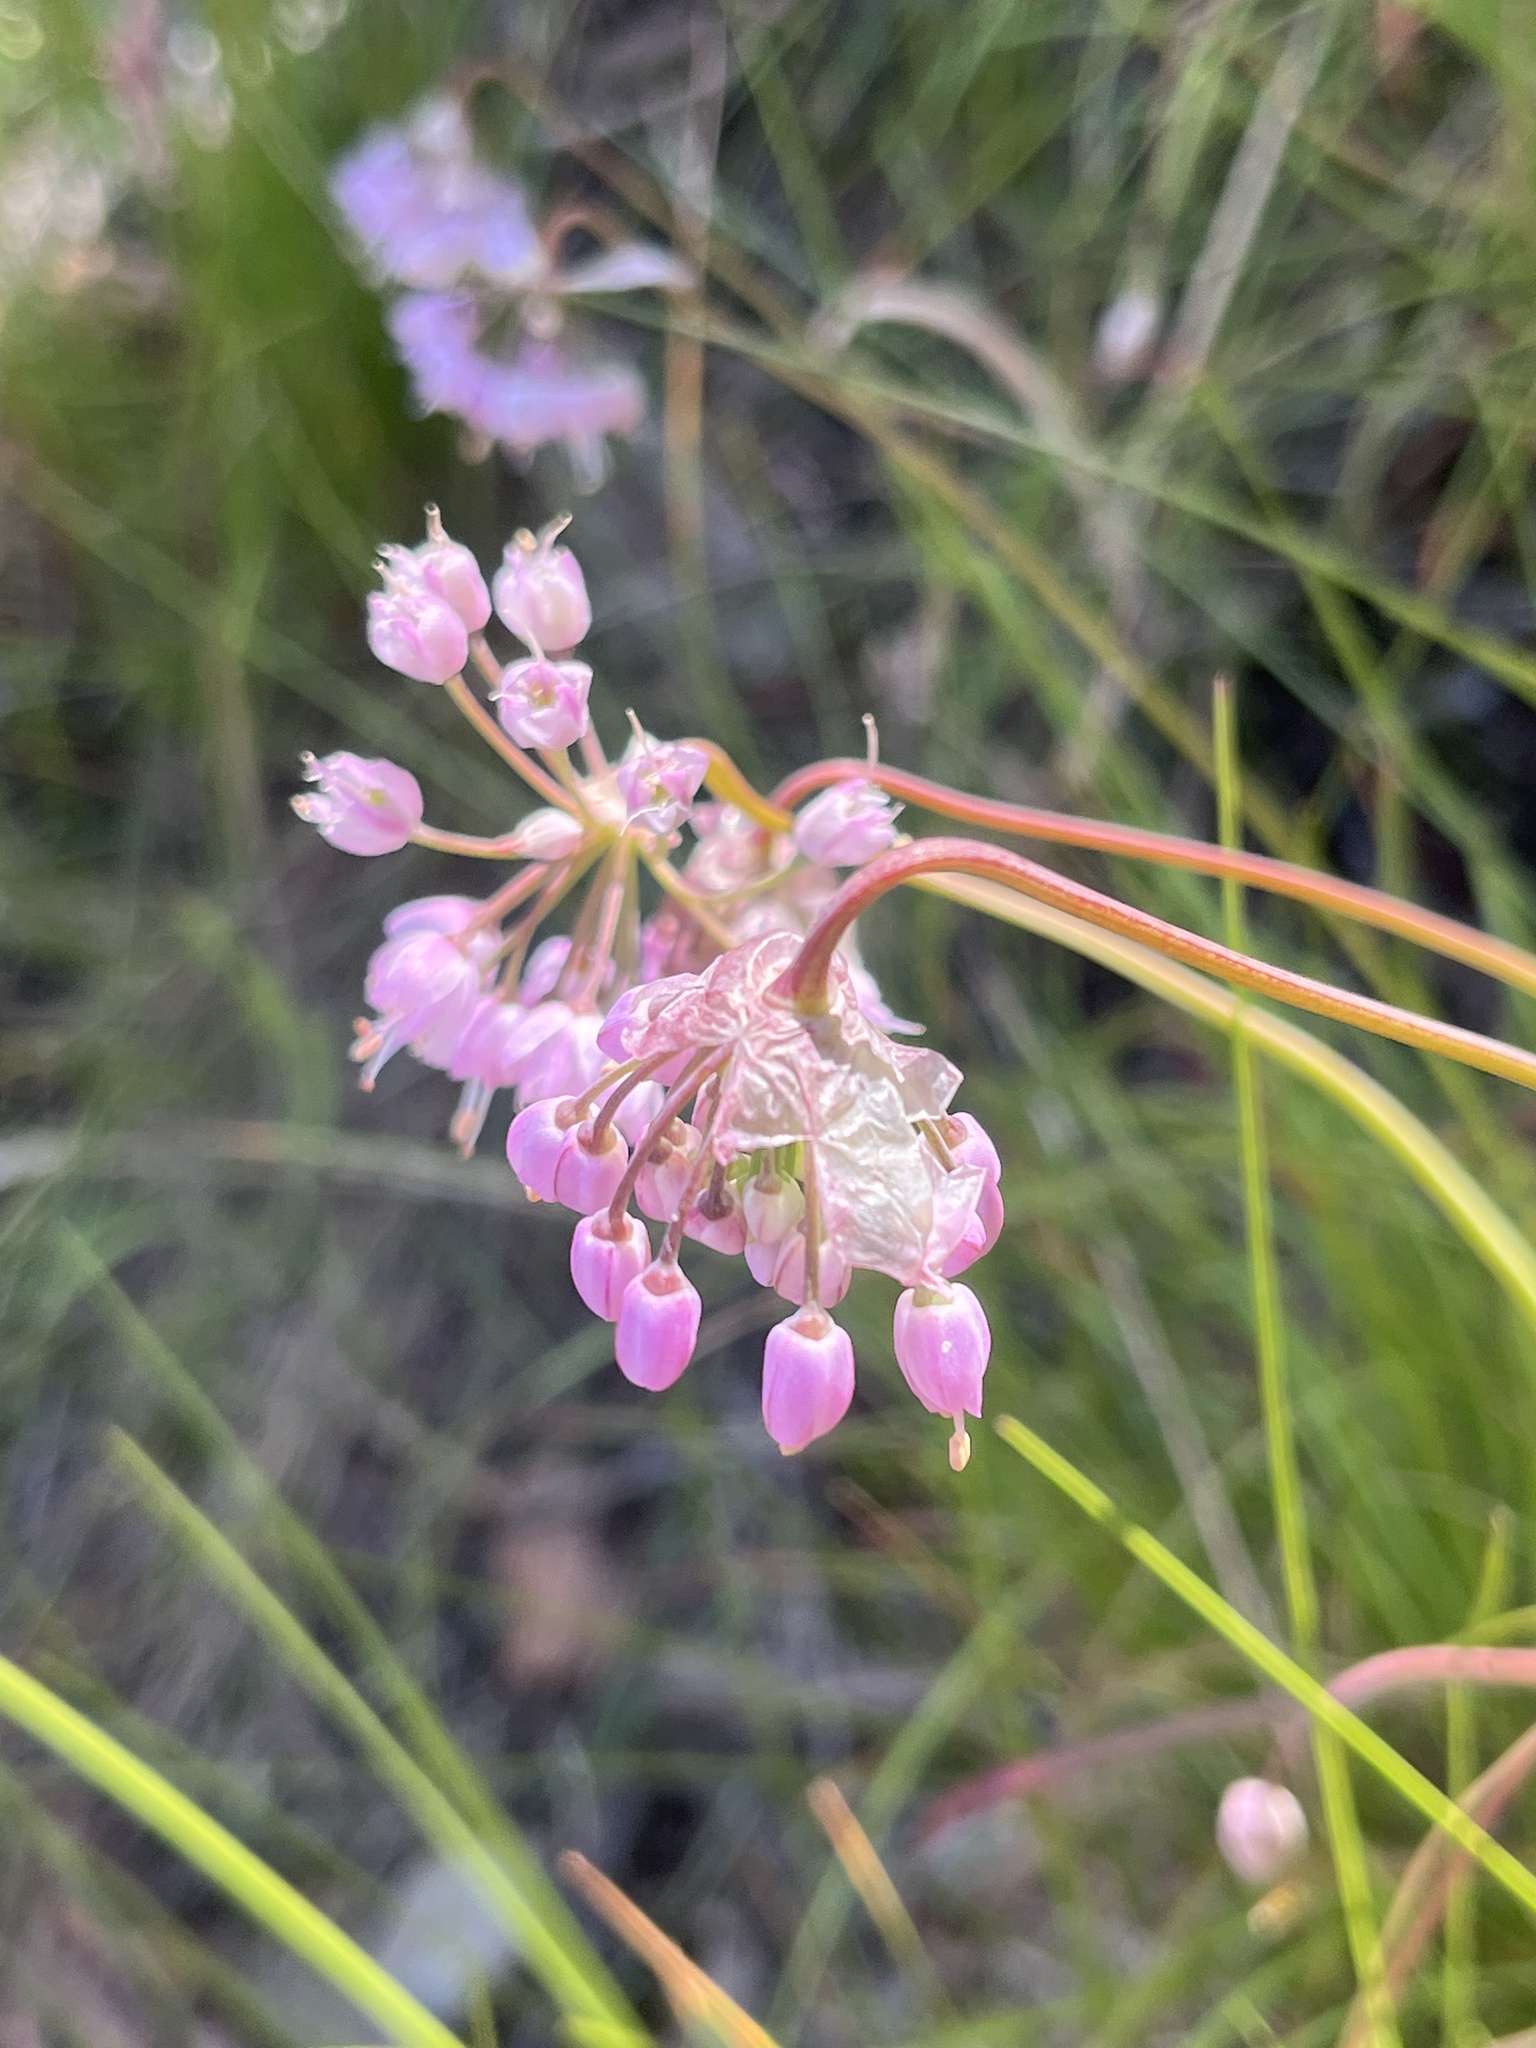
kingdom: Plantae
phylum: Tracheophyta
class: Liliopsida
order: Asparagales
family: Amaryllidaceae
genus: Allium
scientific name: Allium cernuum
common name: Nodding onion
